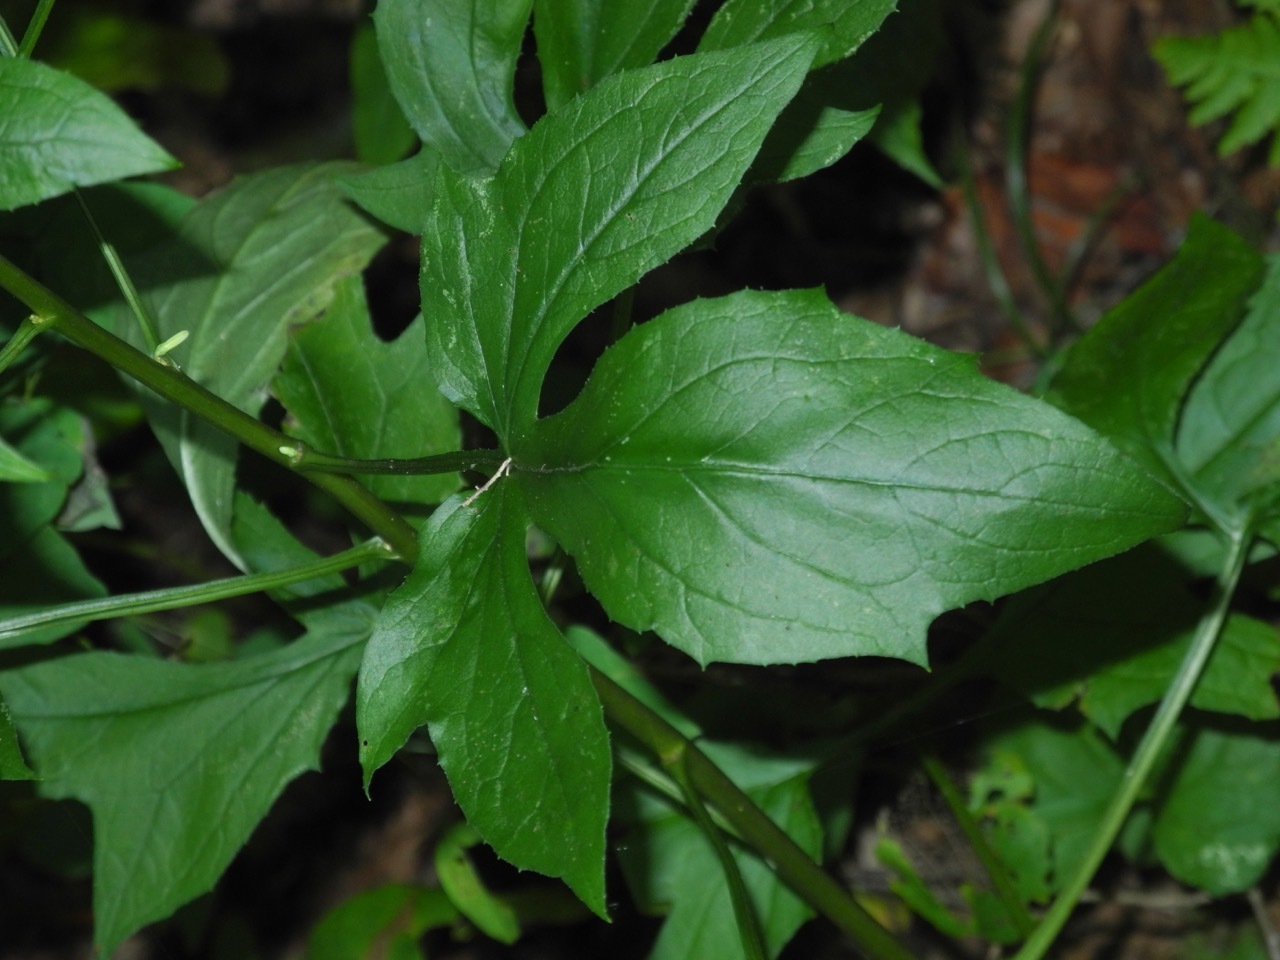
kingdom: Plantae
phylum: Tracheophyta
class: Magnoliopsida
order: Asterales
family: Asteraceae
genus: Nabalus
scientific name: Nabalus altissima
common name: Tall rattlesnakeroot
